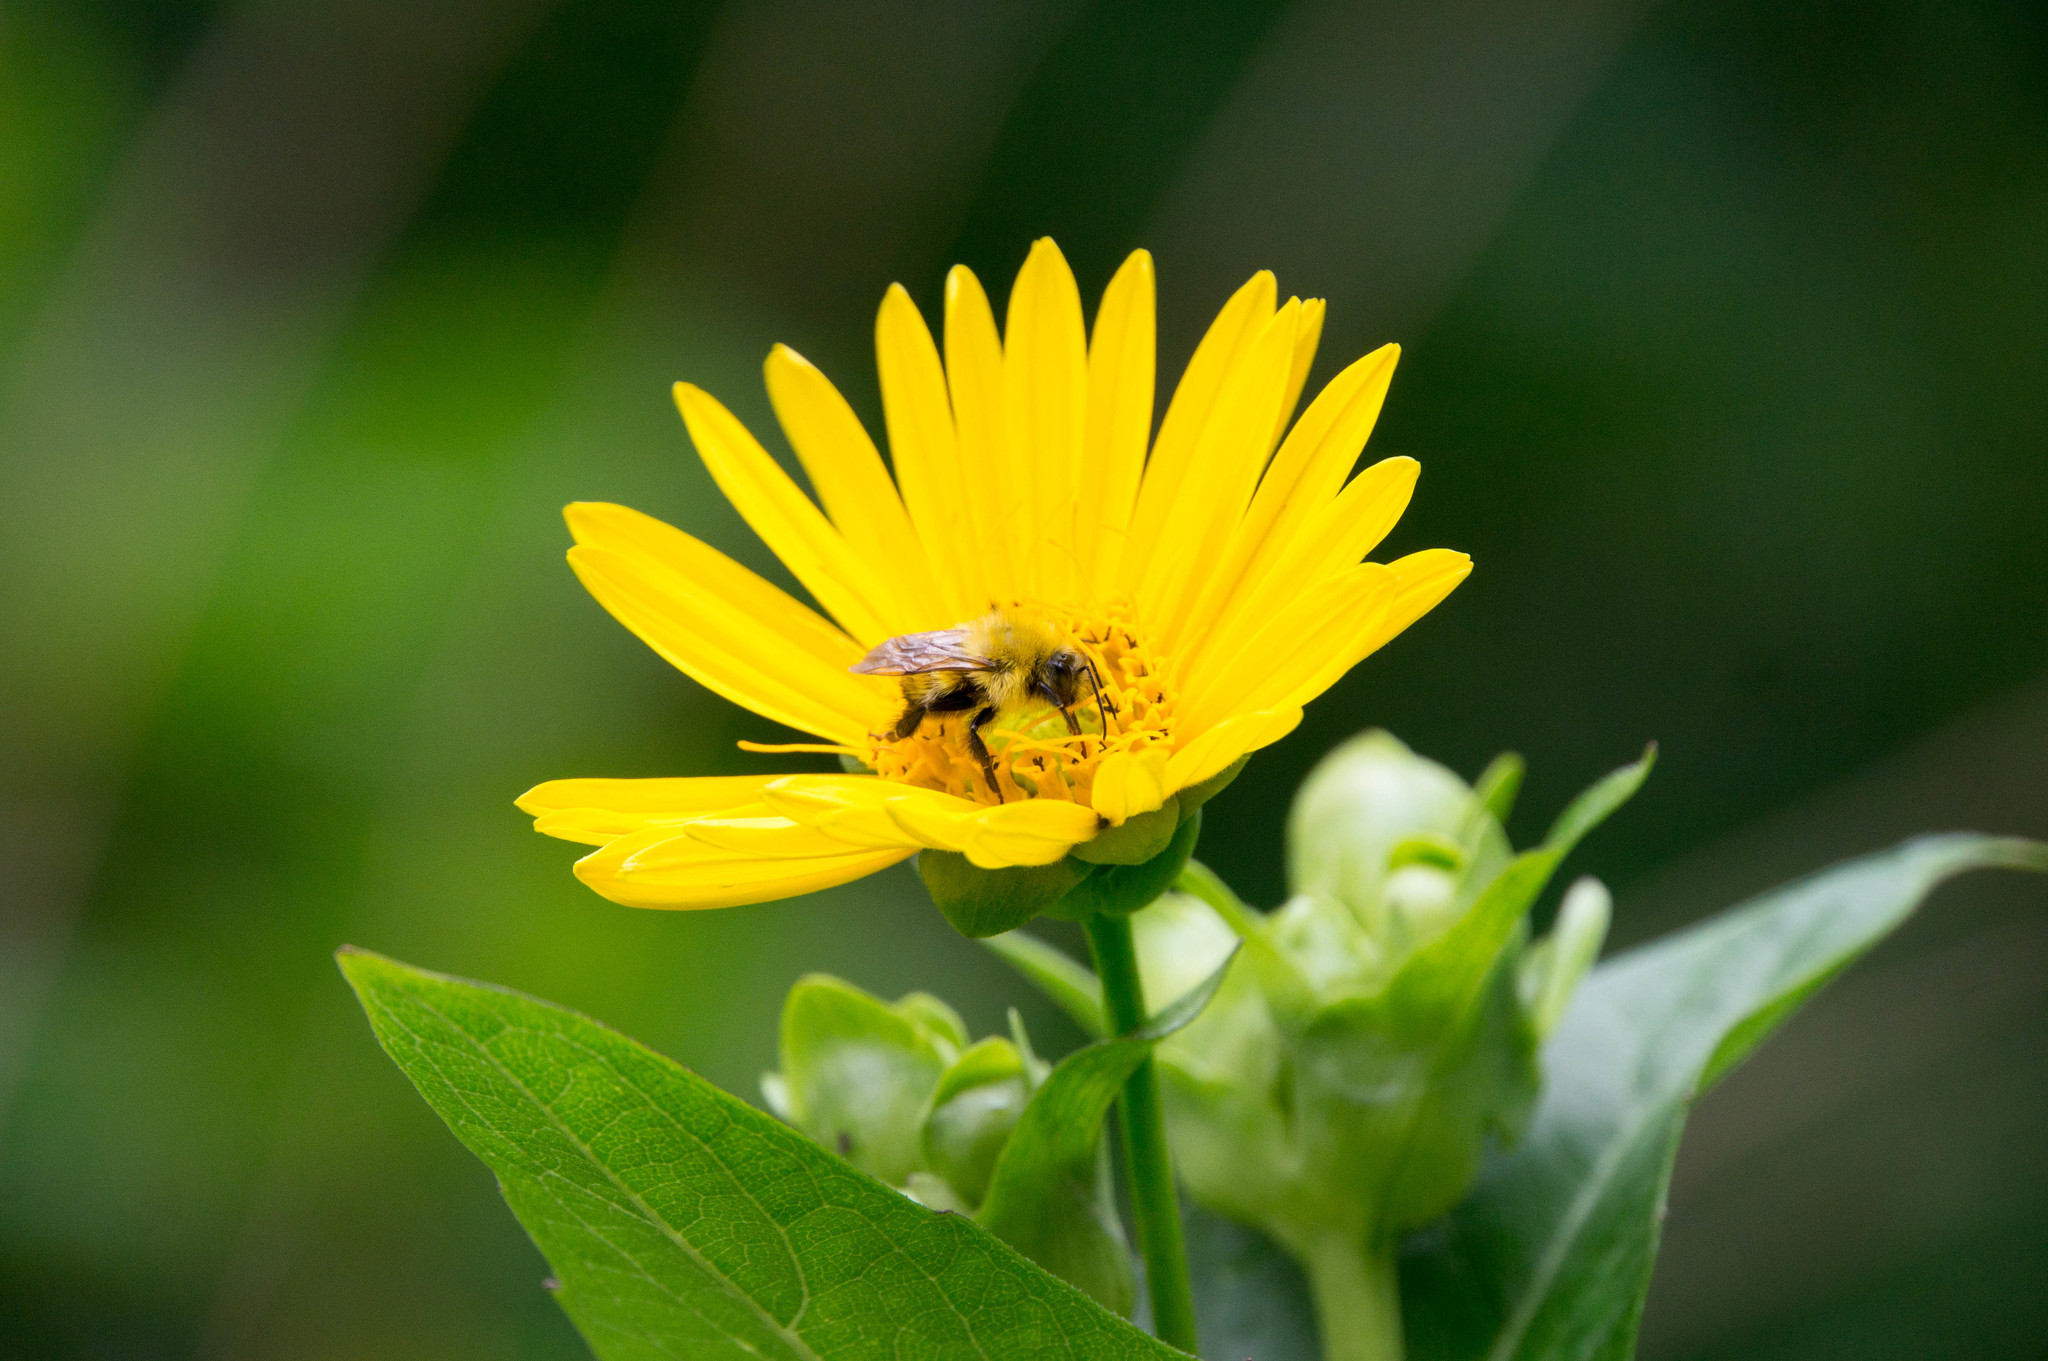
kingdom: Animalia
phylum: Arthropoda
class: Insecta
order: Hymenoptera
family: Apidae
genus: Bombus
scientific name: Bombus perplexus
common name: Confusing bumble bee
